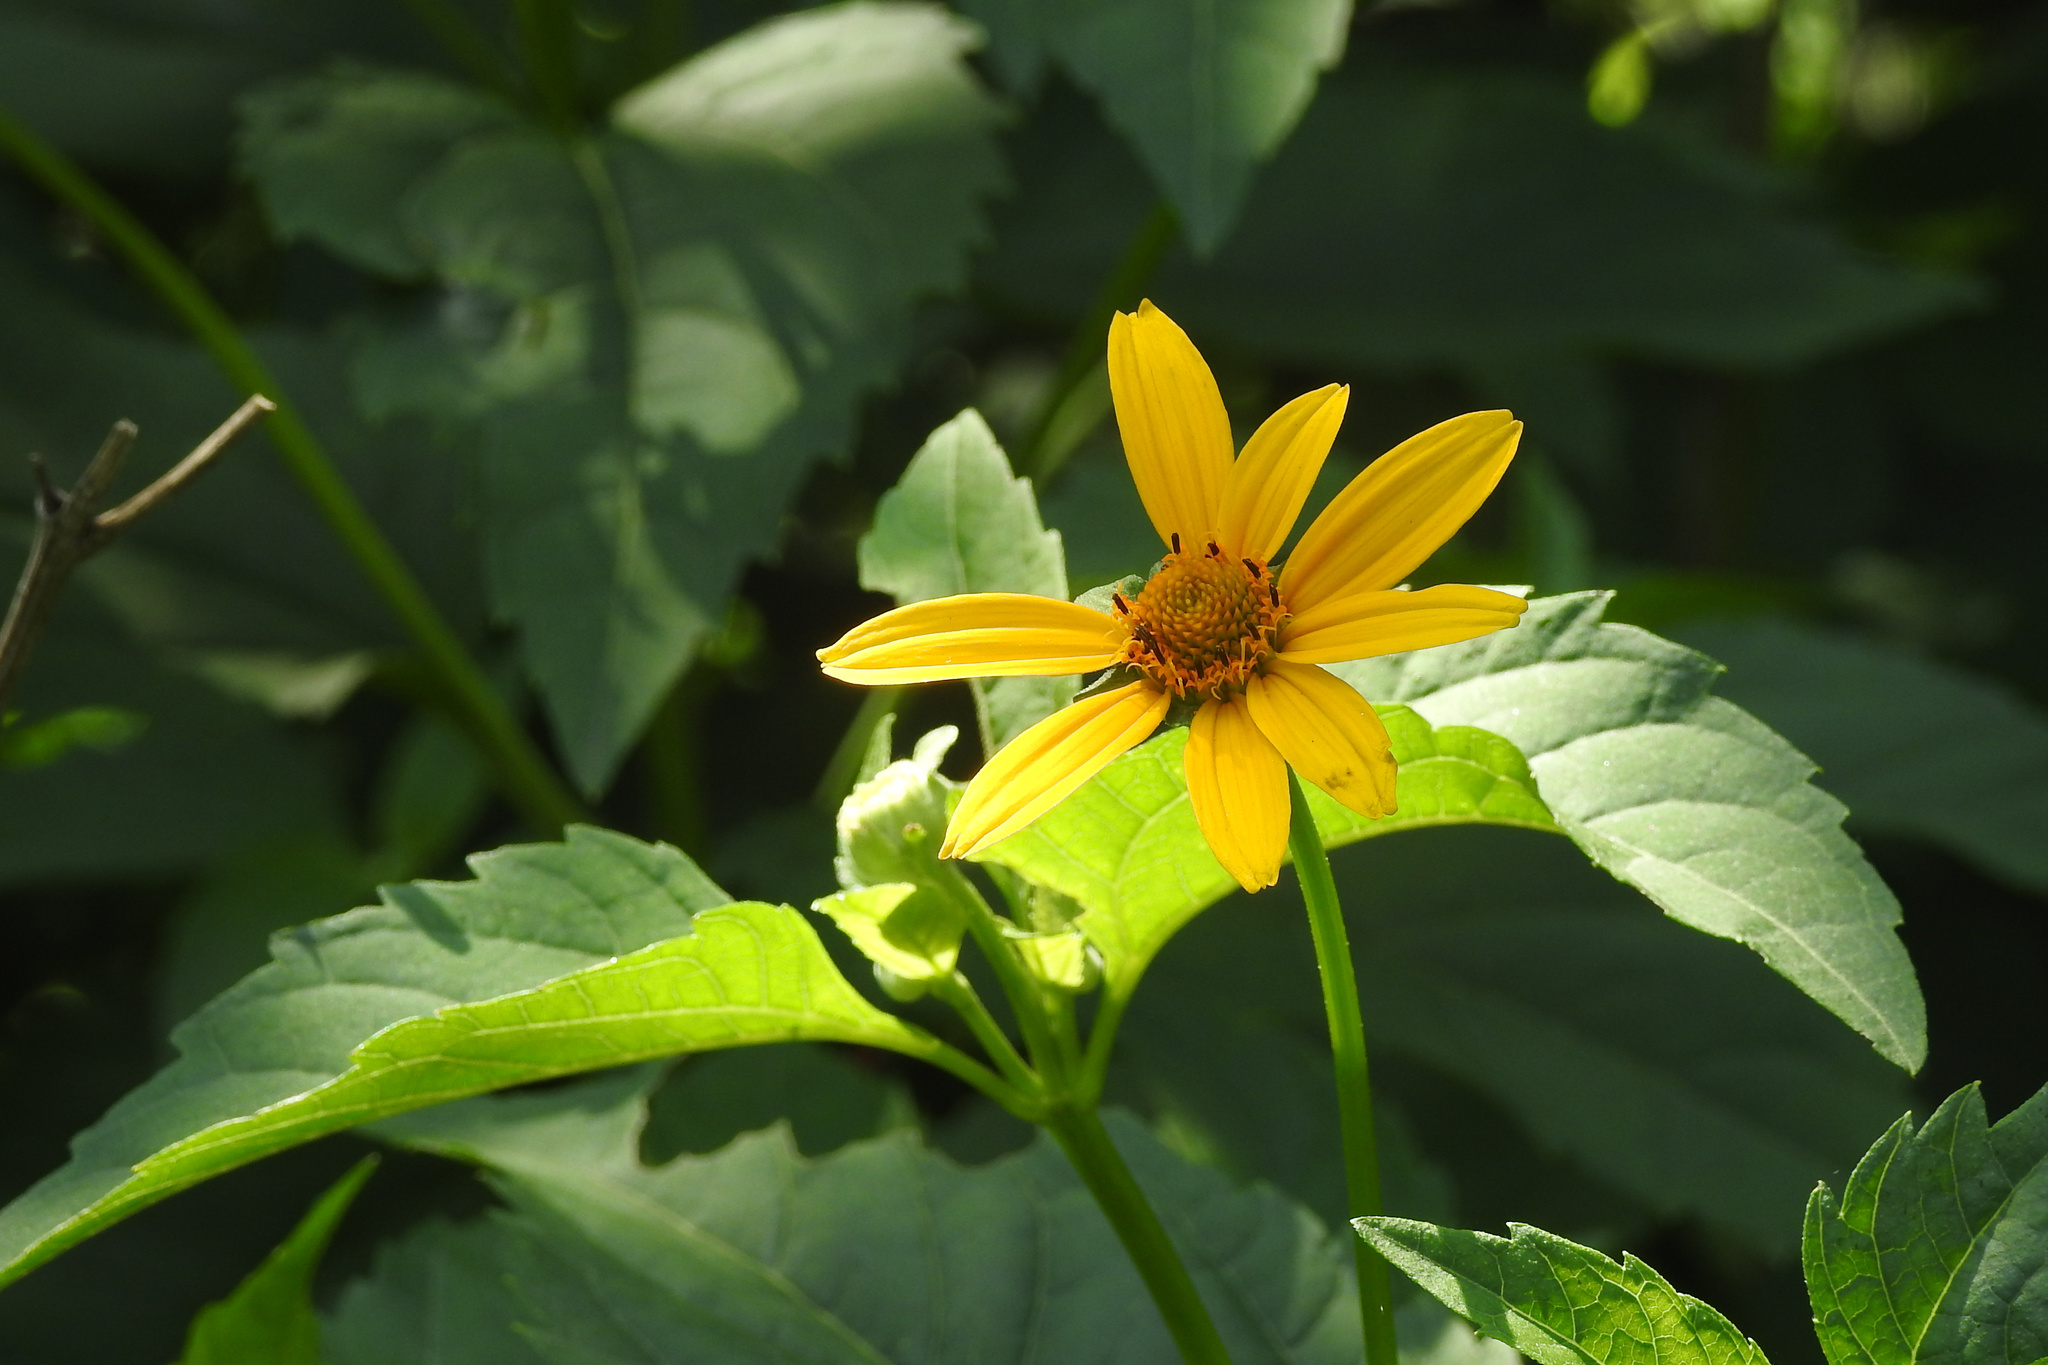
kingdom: Plantae
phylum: Tracheophyta
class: Magnoliopsida
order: Asterales
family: Asteraceae
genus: Heliopsis
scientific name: Heliopsis helianthoides
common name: False sunflower
